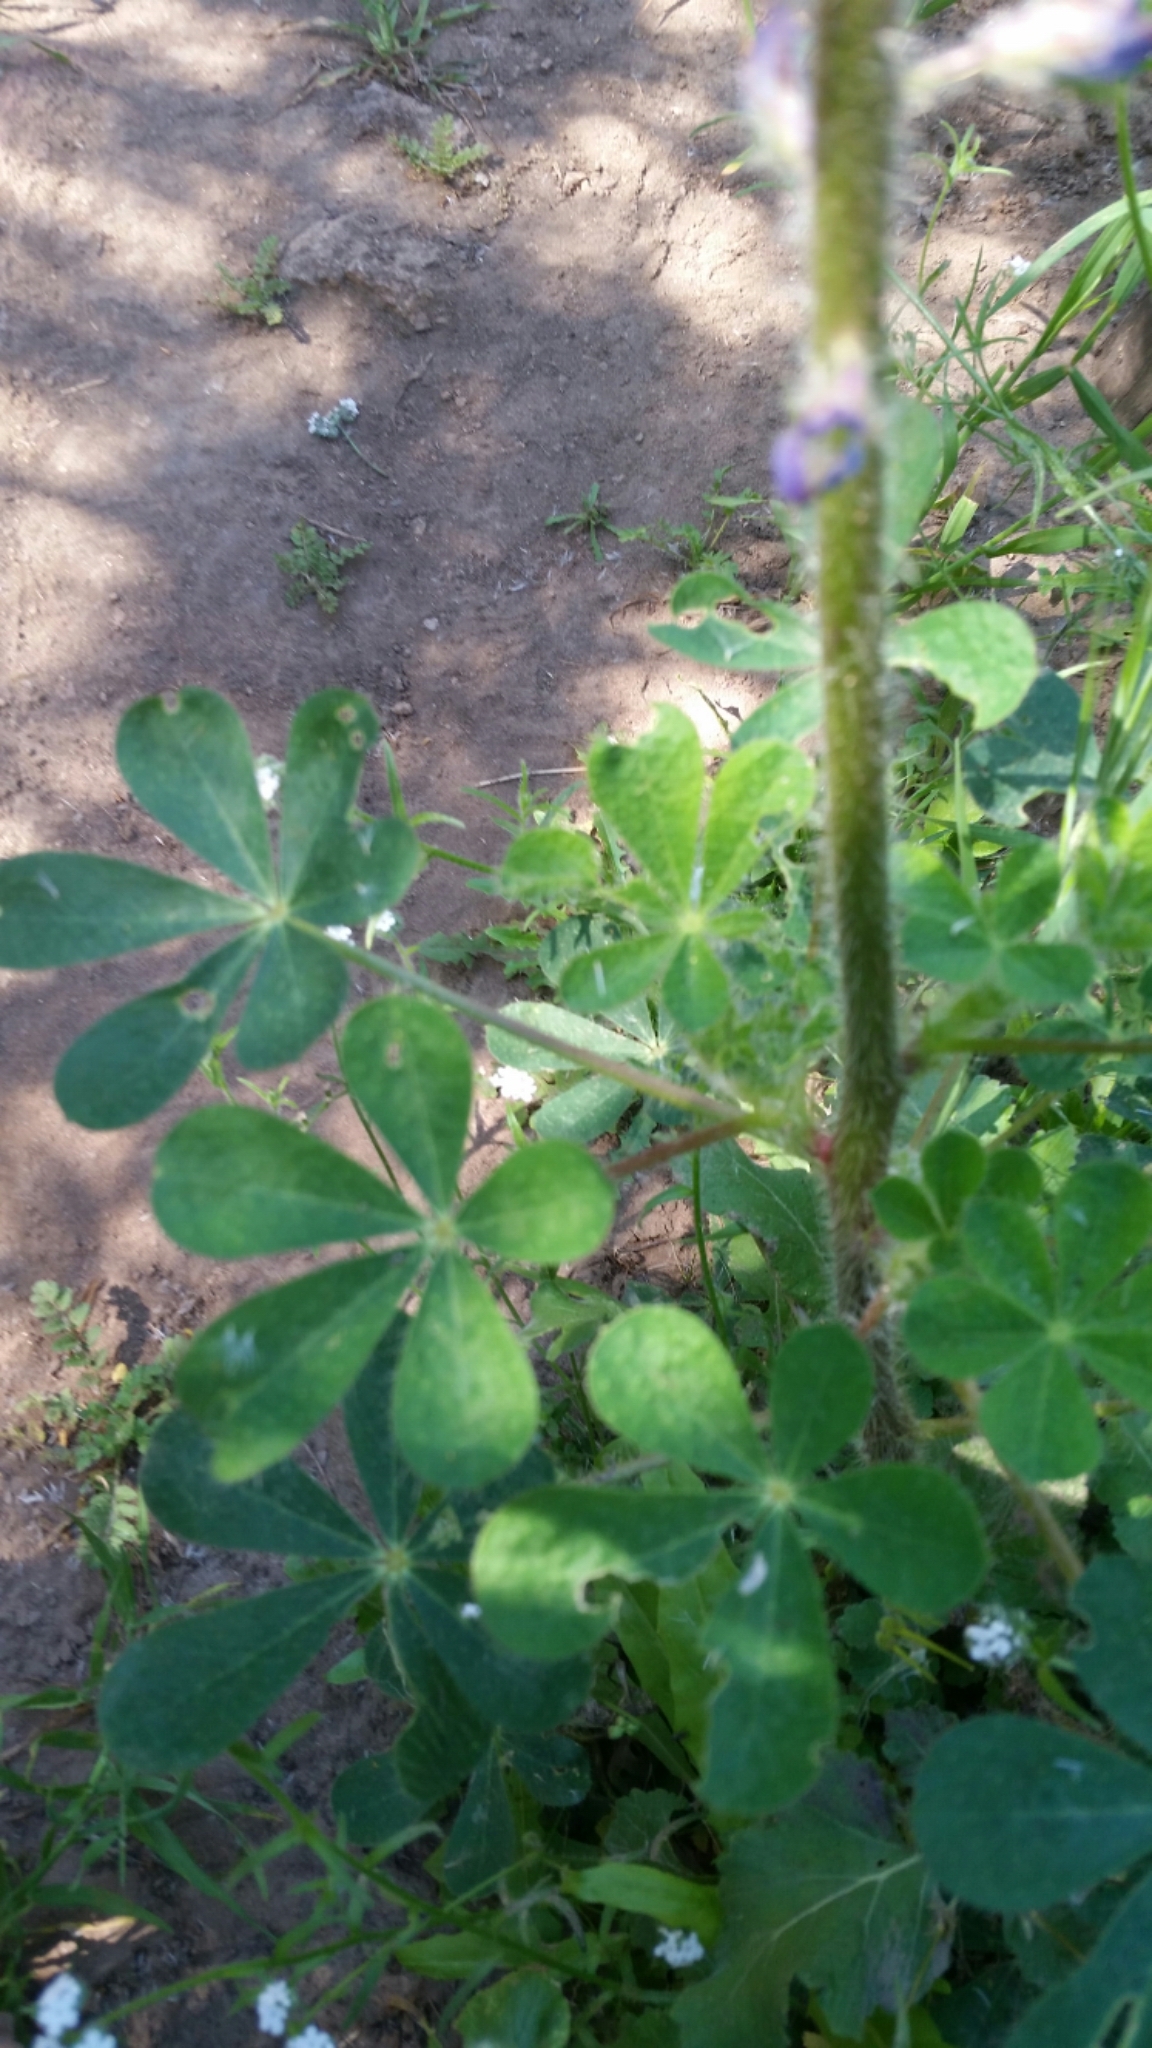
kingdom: Plantae
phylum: Tracheophyta
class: Magnoliopsida
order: Fabales
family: Fabaceae
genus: Lupinus
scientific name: Lupinus hirsutissimus
